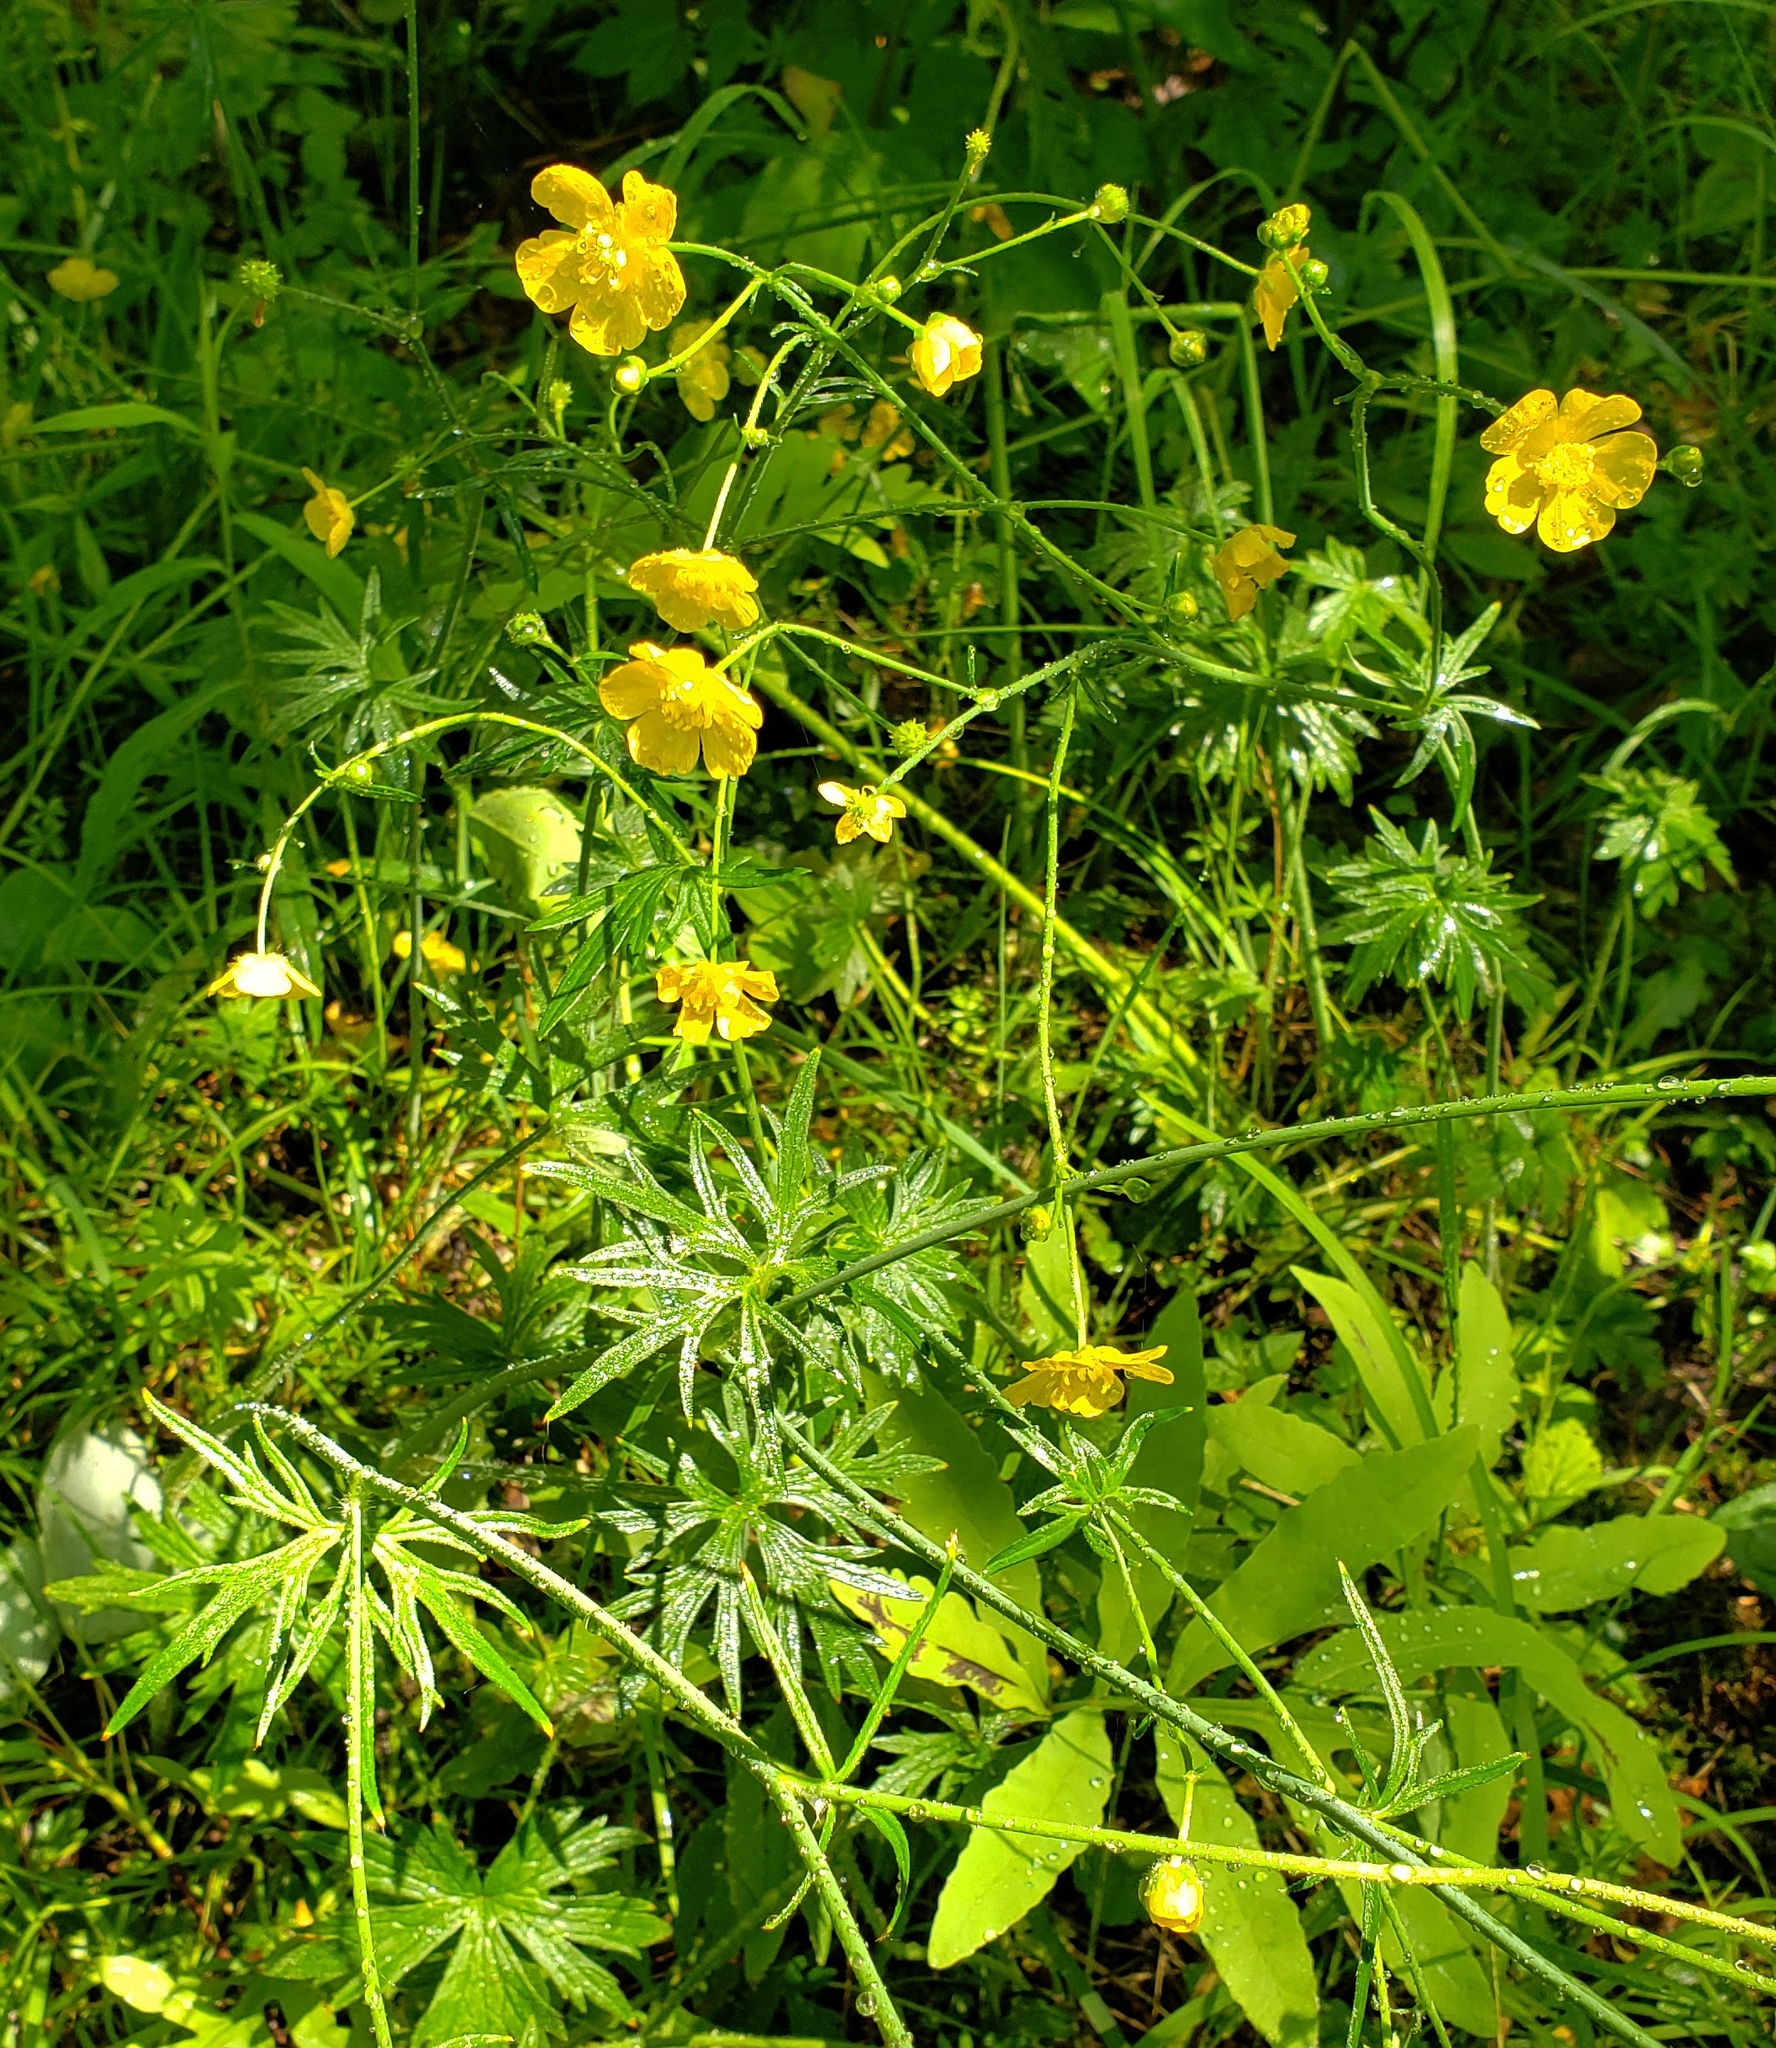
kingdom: Plantae
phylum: Tracheophyta
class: Magnoliopsida
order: Ranunculales
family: Ranunculaceae
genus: Ranunculus
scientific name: Ranunculus acris
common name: Meadow buttercup
